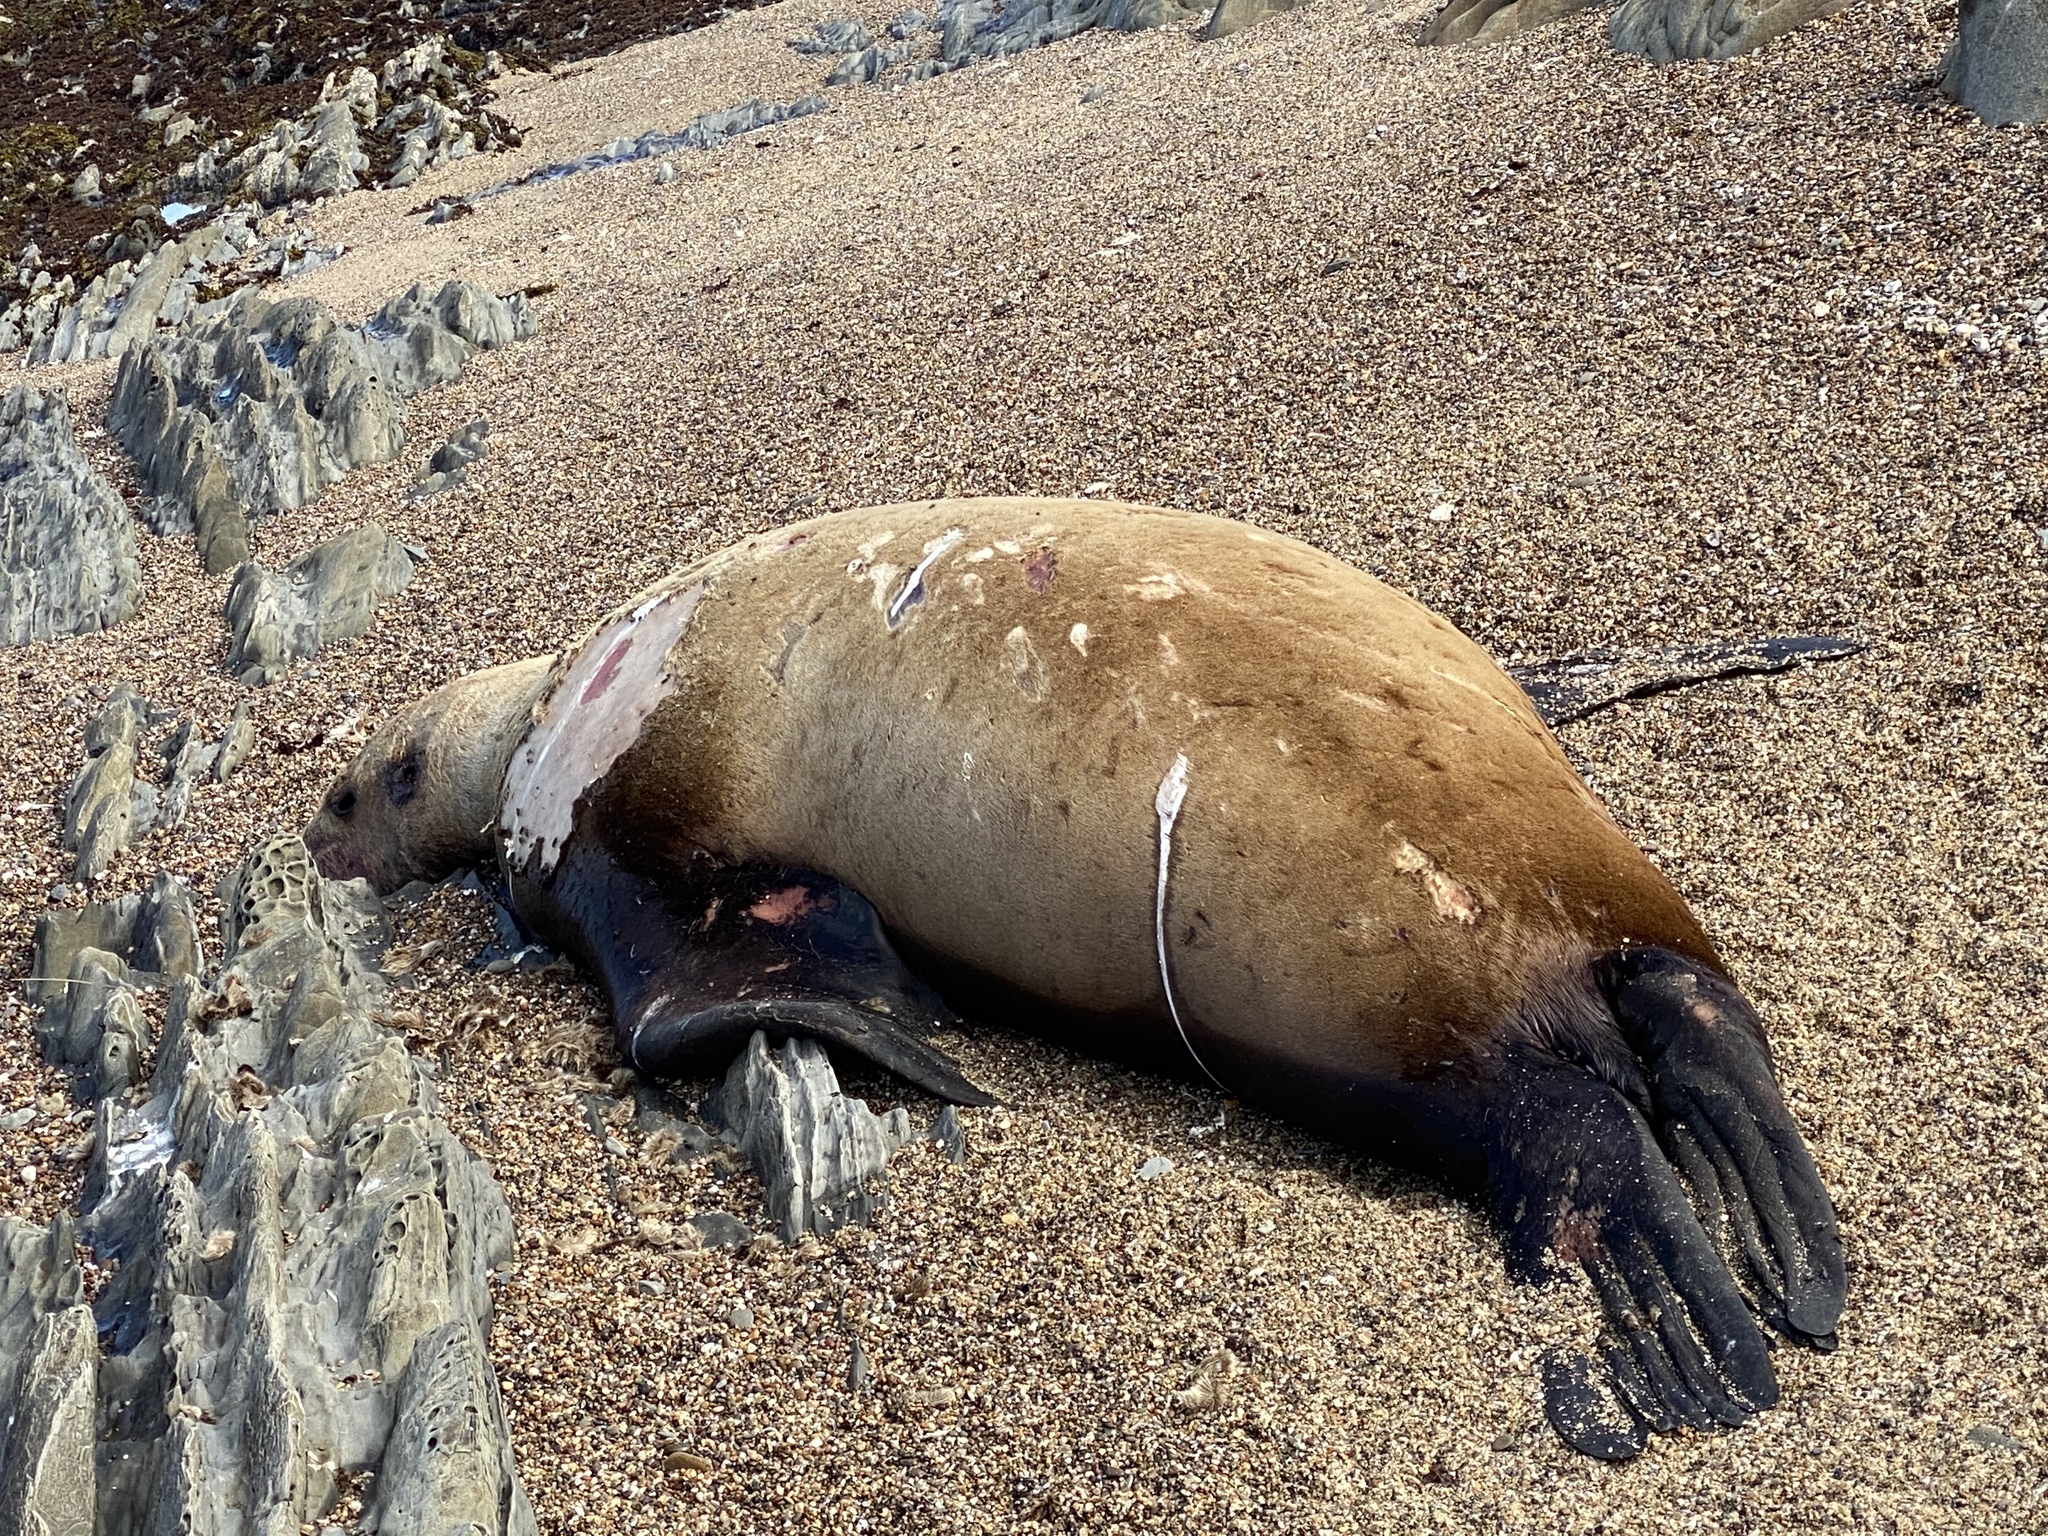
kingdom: Animalia
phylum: Chordata
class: Mammalia
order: Carnivora
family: Otariidae
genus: Eumetopias
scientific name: Eumetopias jubatus
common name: Steller sea lion
